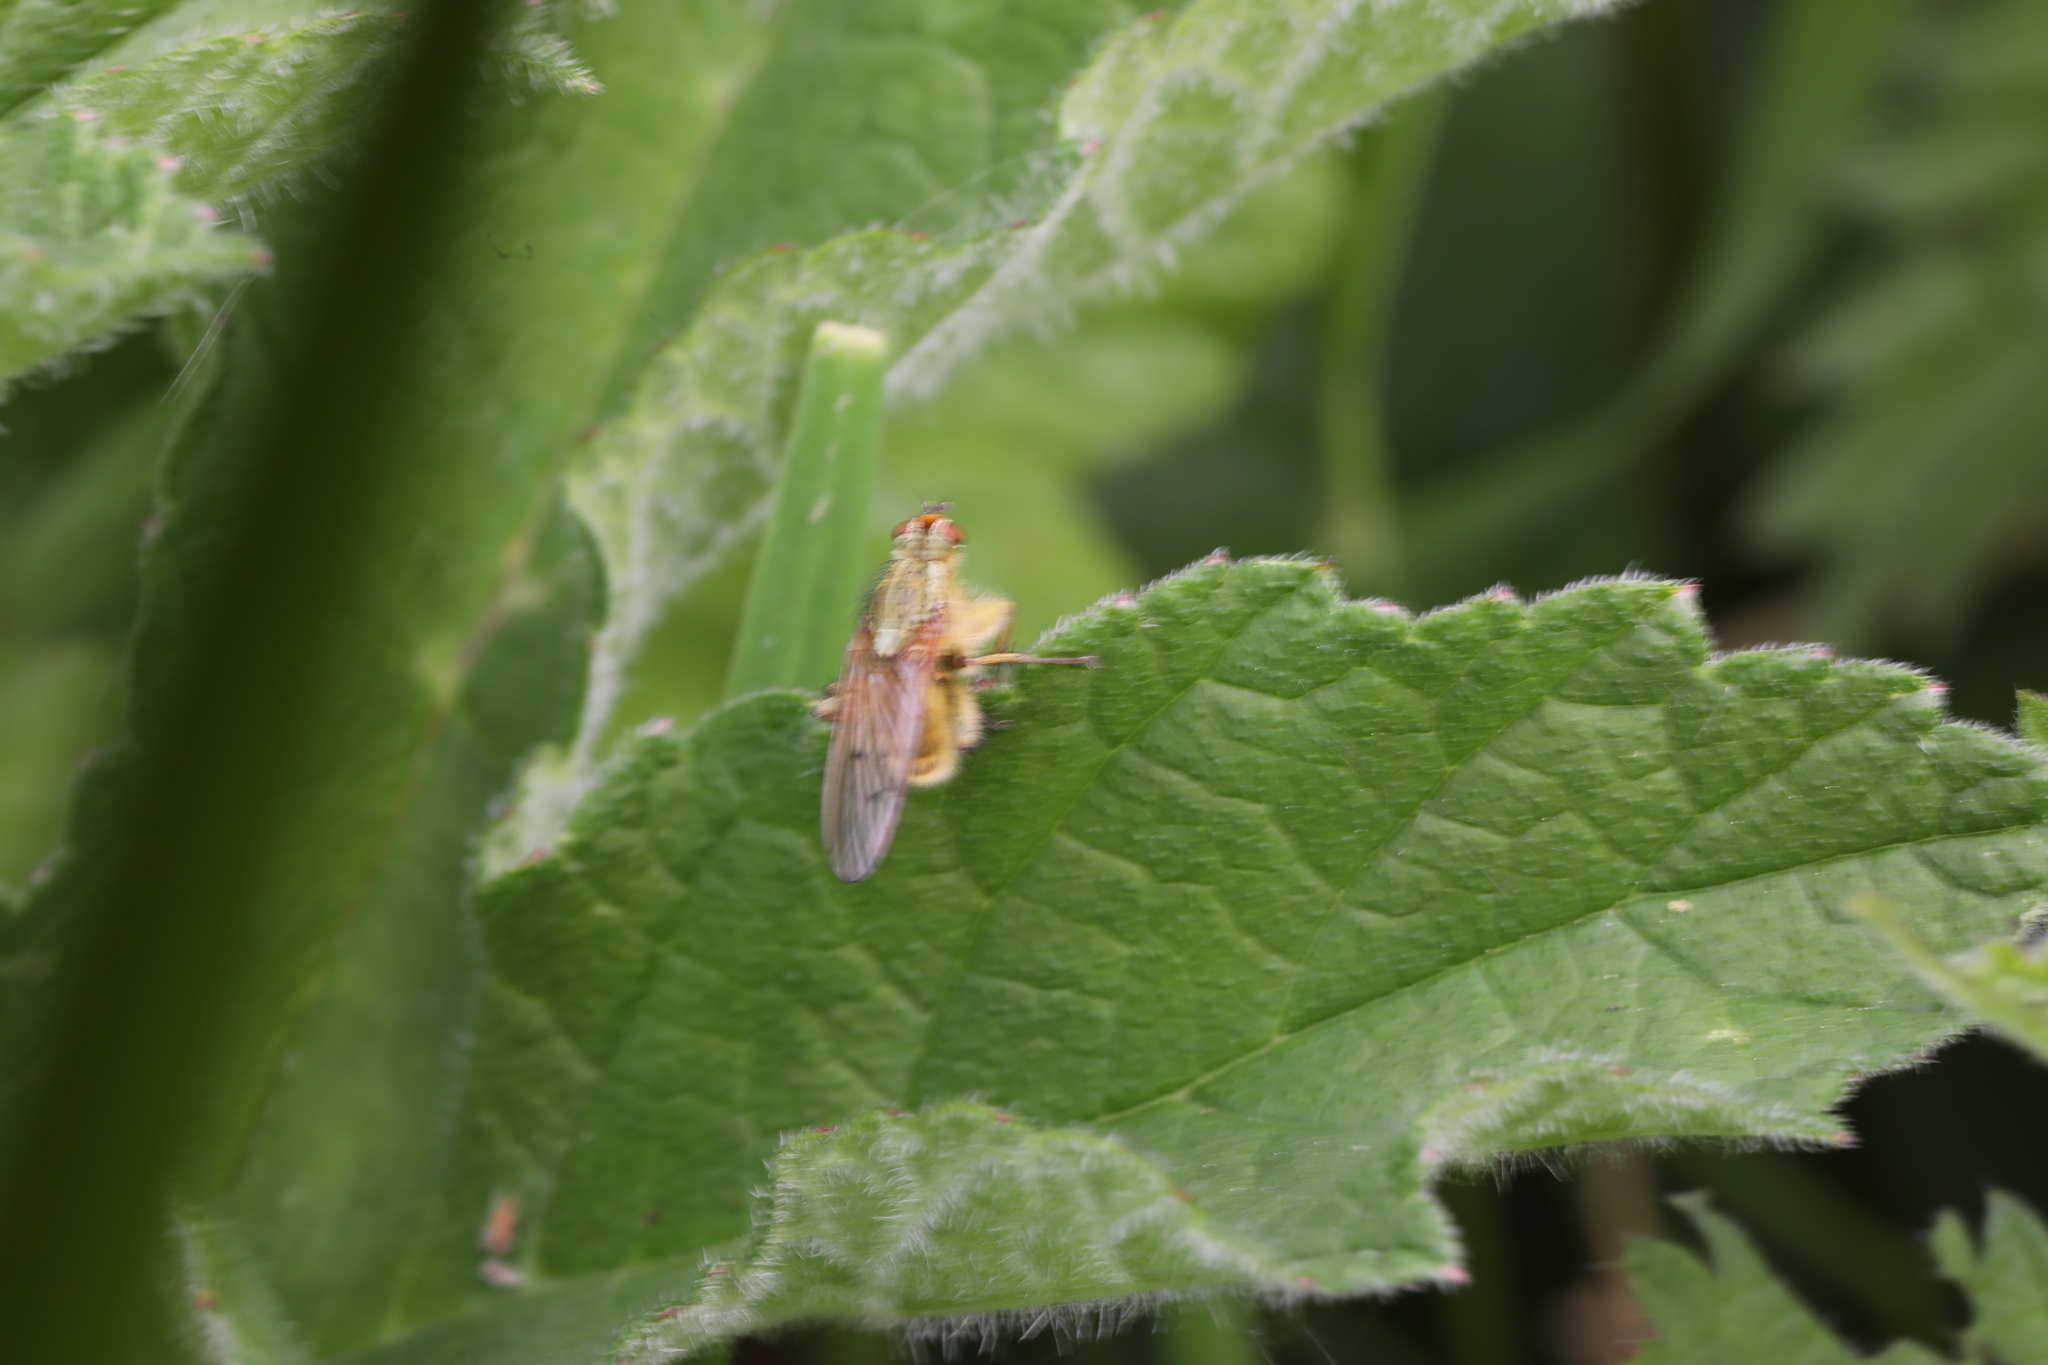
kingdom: Animalia
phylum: Arthropoda
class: Insecta
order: Diptera
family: Scathophagidae
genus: Scathophaga
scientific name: Scathophaga stercoraria
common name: Yellow dung fly
